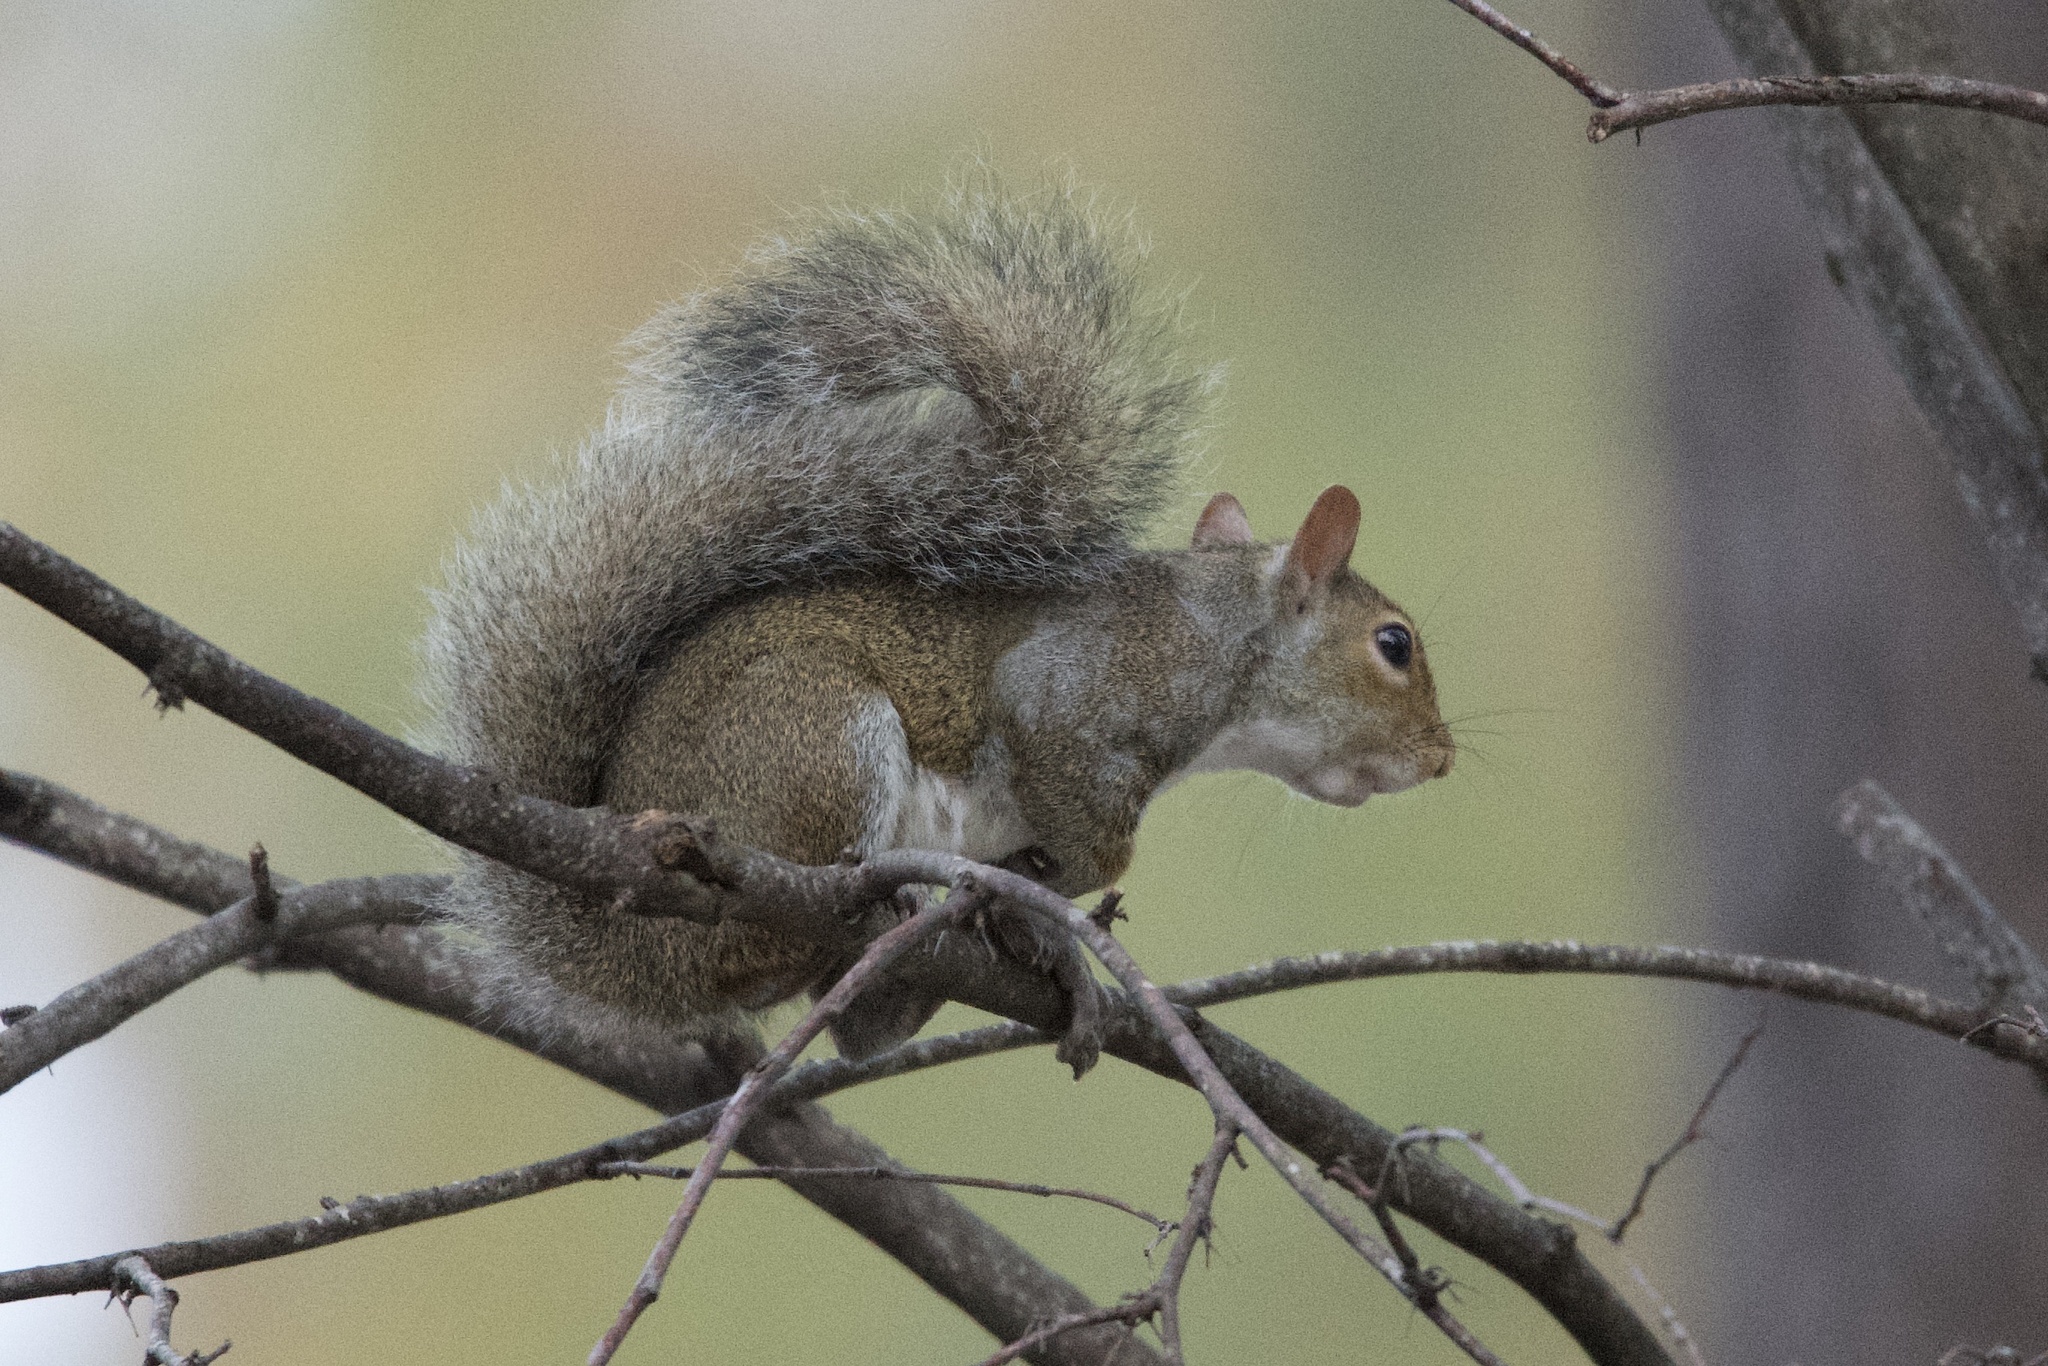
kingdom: Animalia
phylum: Chordata
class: Mammalia
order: Rodentia
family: Sciuridae
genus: Sciurus
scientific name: Sciurus carolinensis
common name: Eastern gray squirrel
